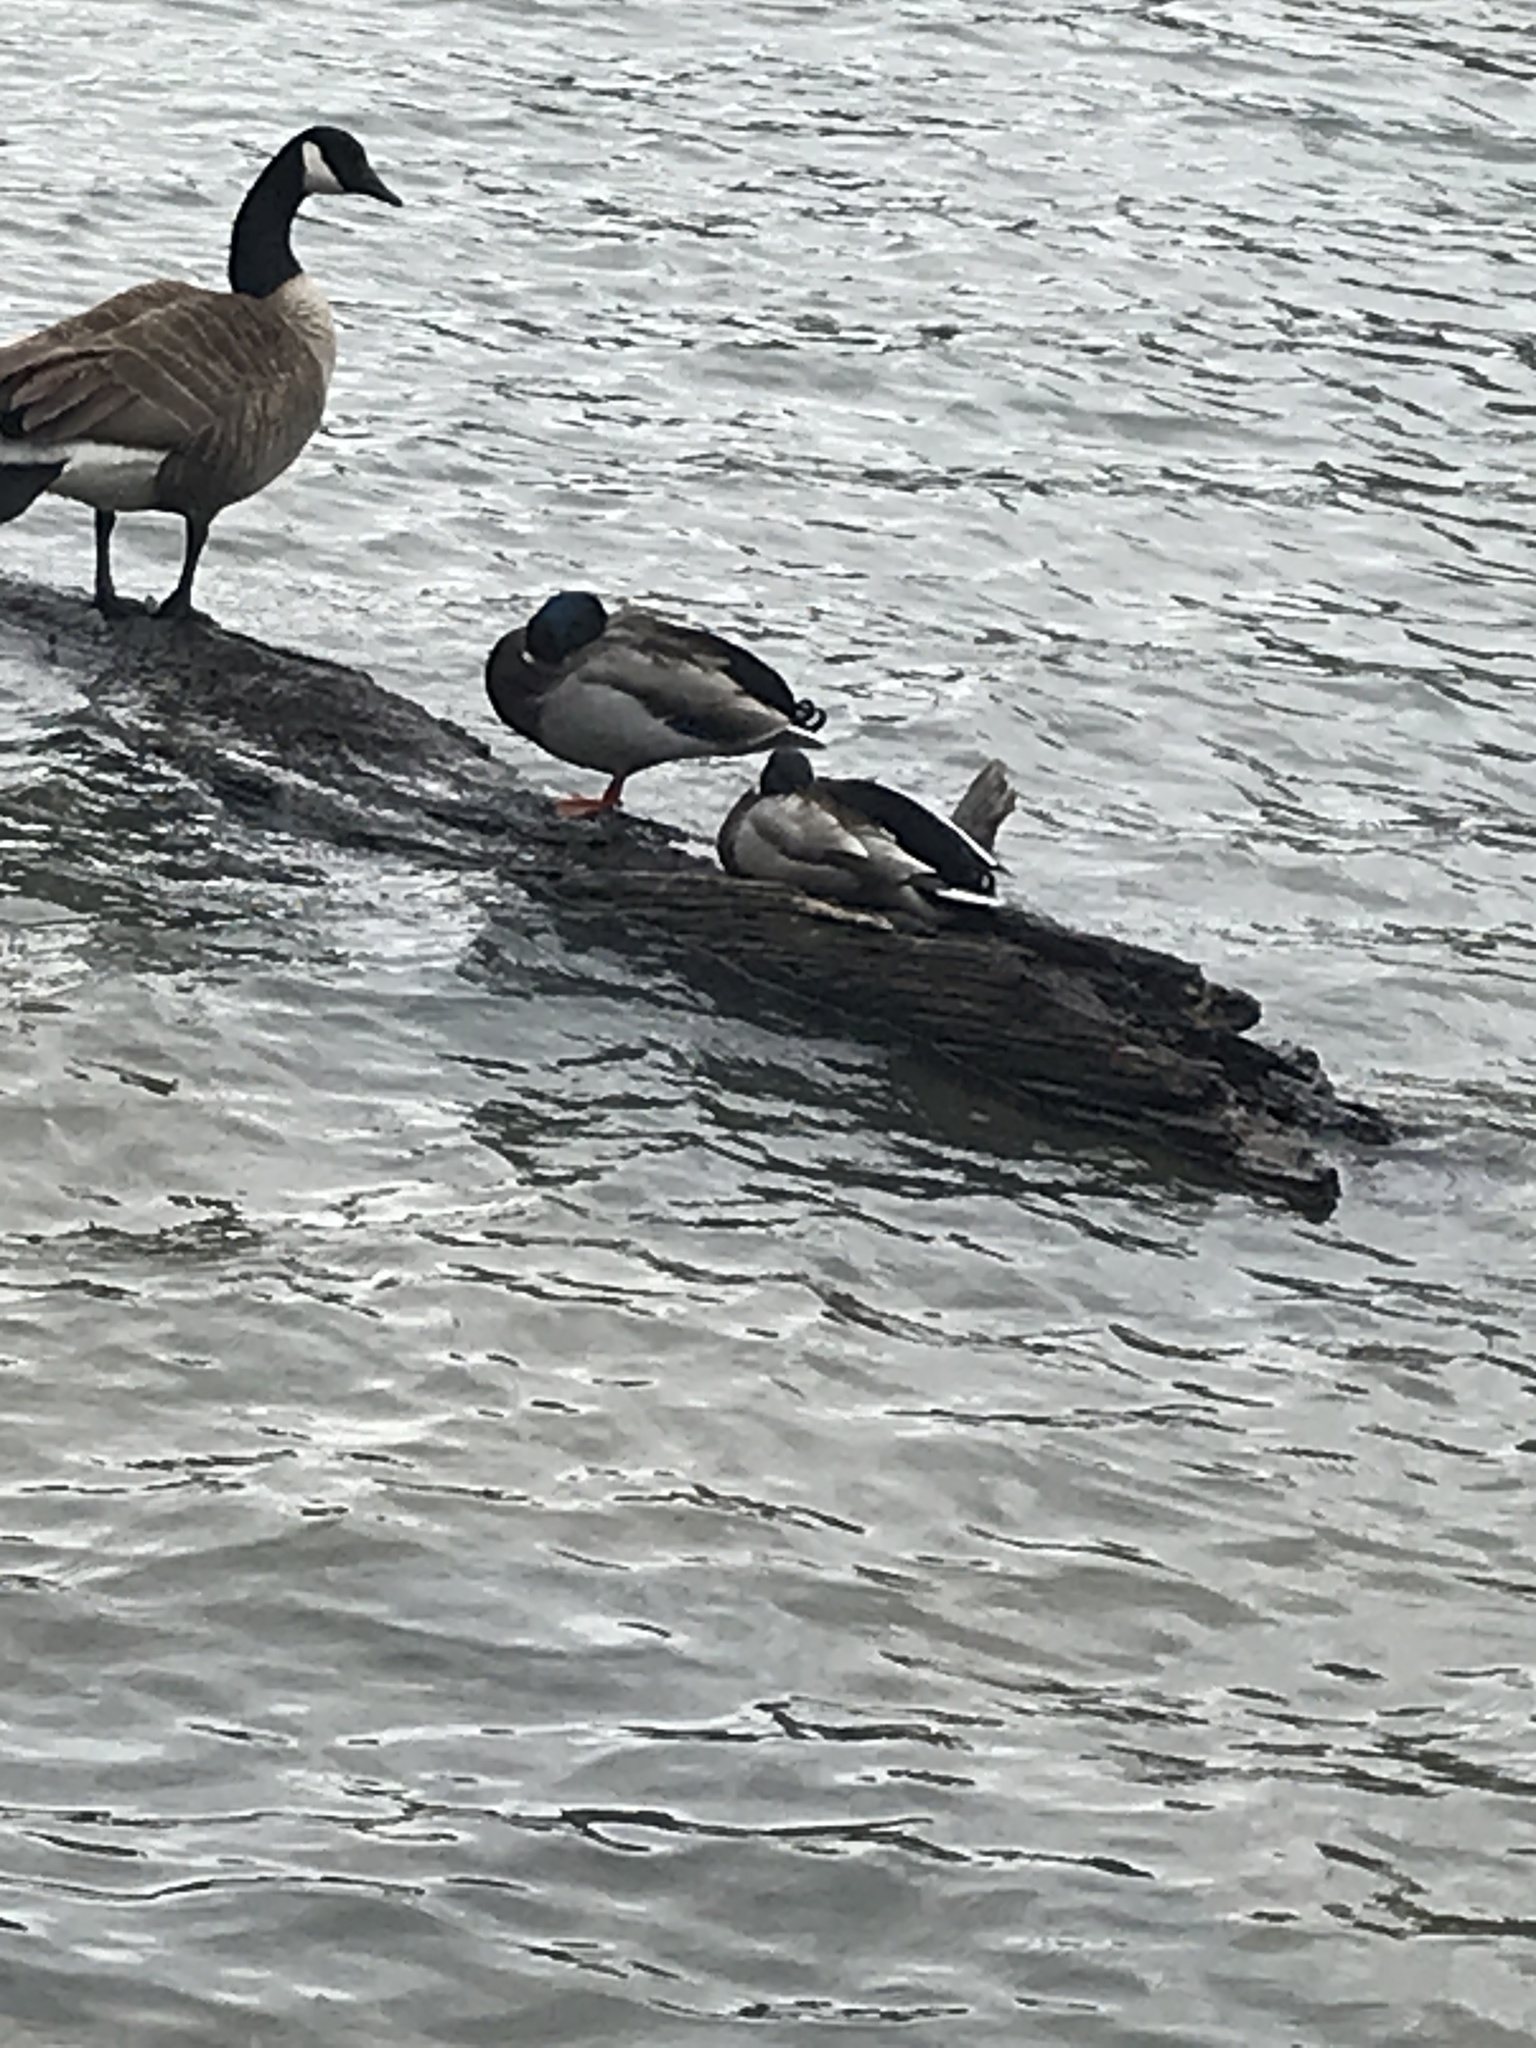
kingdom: Animalia
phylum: Chordata
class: Aves
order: Anseriformes
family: Anatidae
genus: Anas
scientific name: Anas platyrhynchos
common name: Mallard
